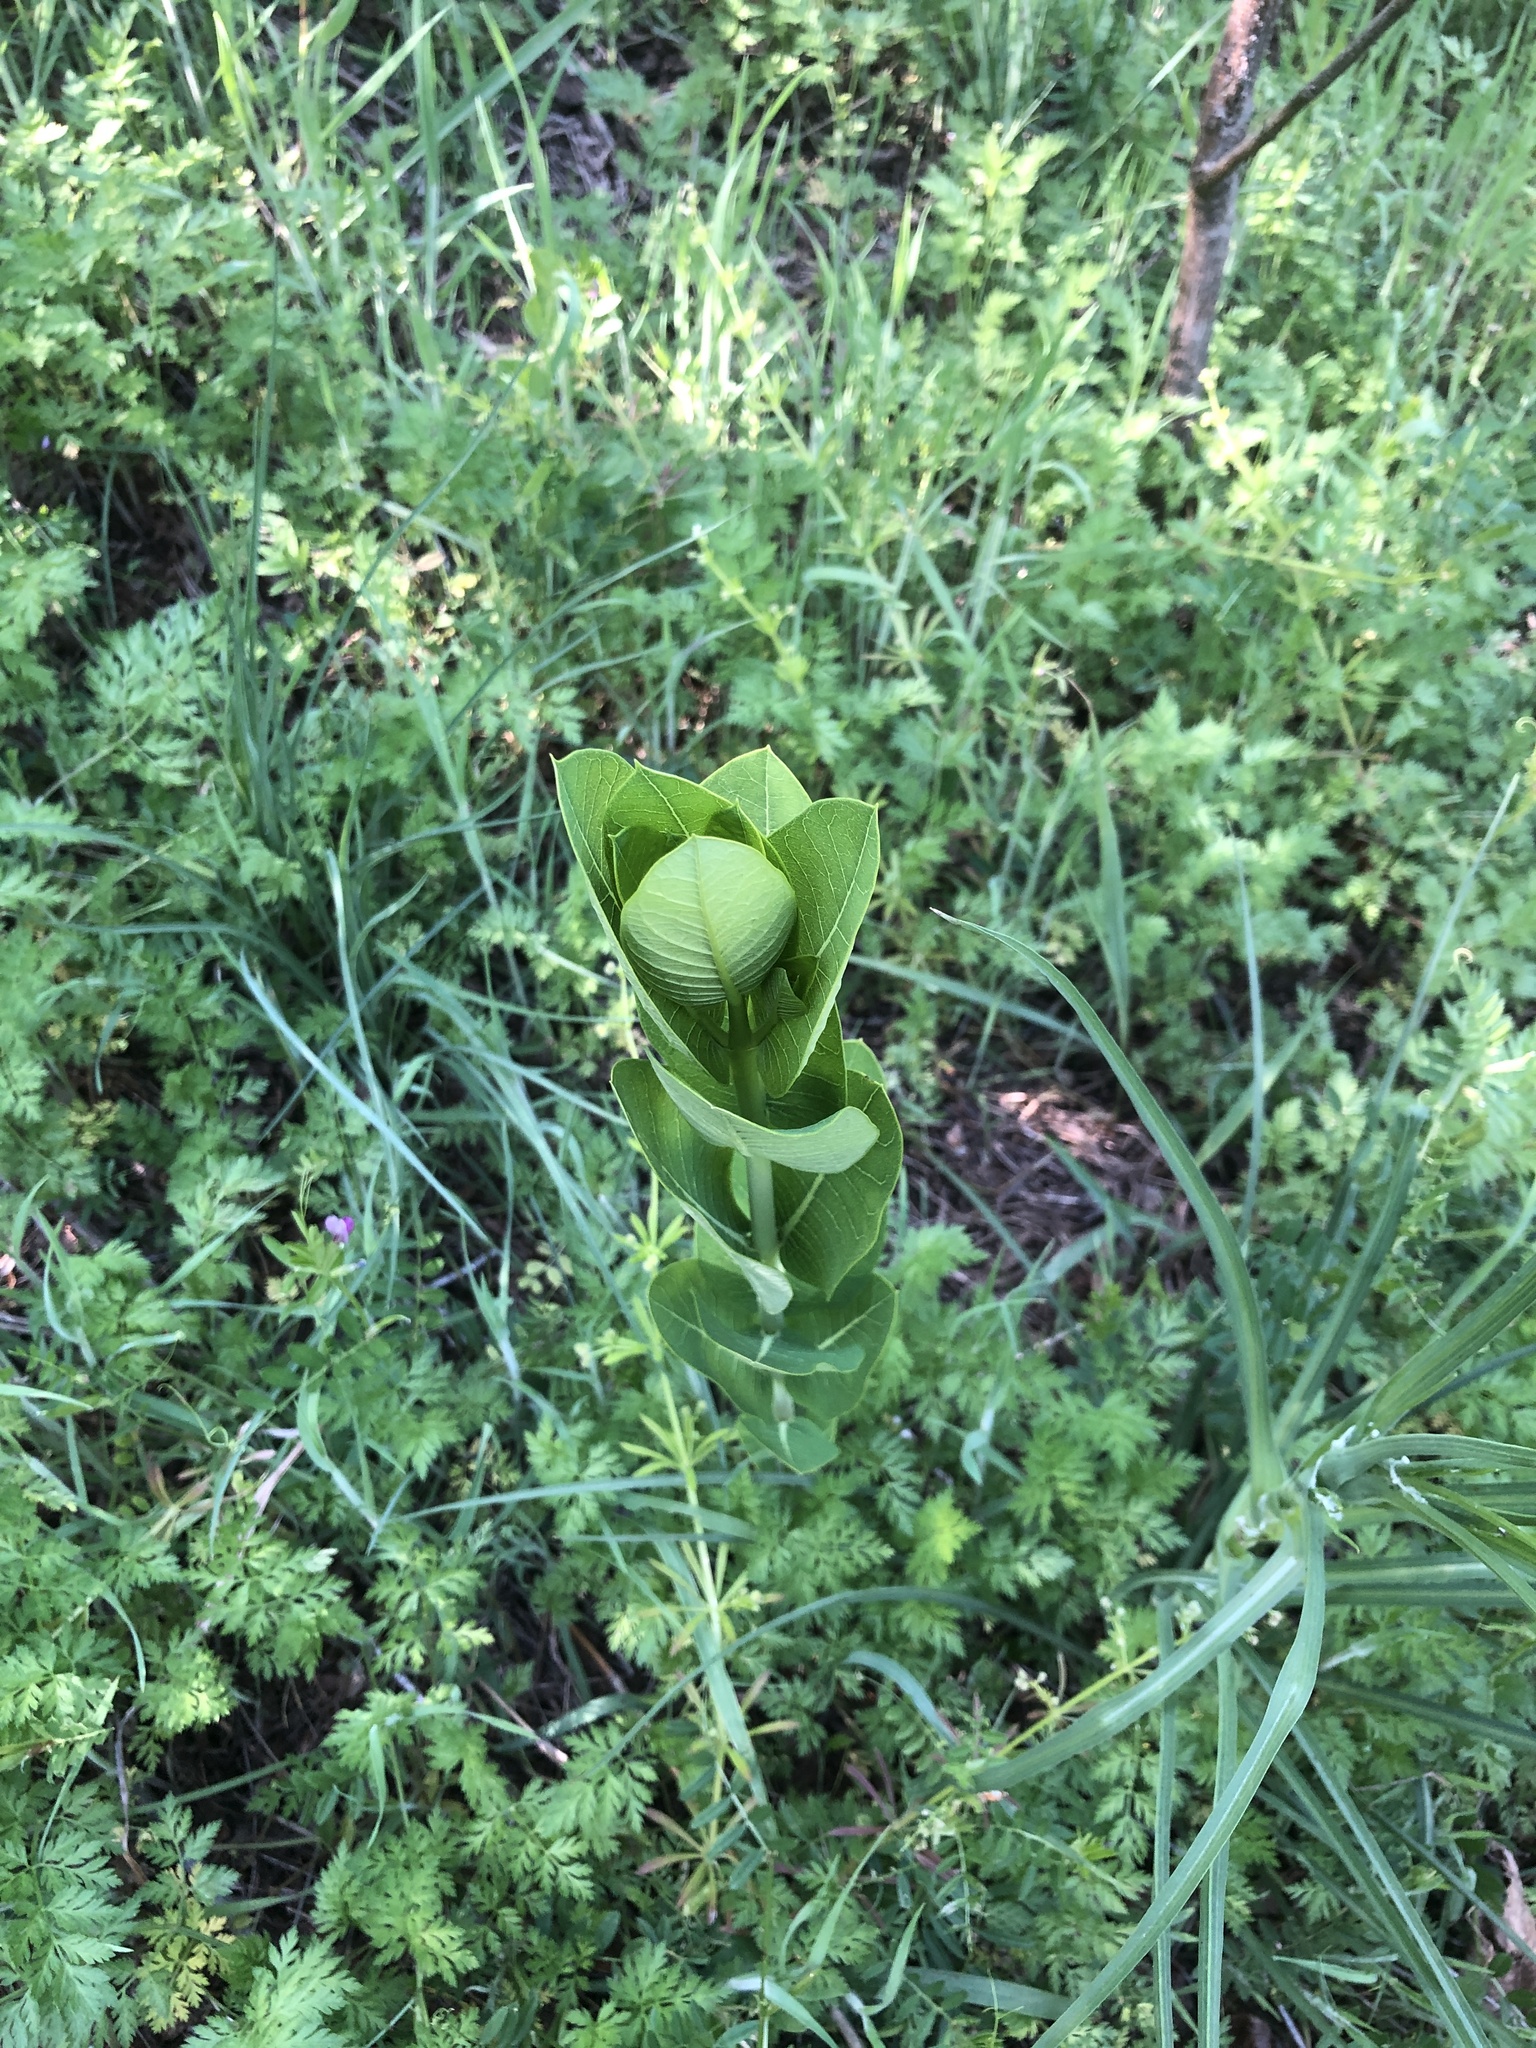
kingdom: Plantae
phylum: Tracheophyta
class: Magnoliopsida
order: Gentianales
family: Apocynaceae
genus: Apocynum
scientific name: Apocynum cannabinum
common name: Hemp dogbane
